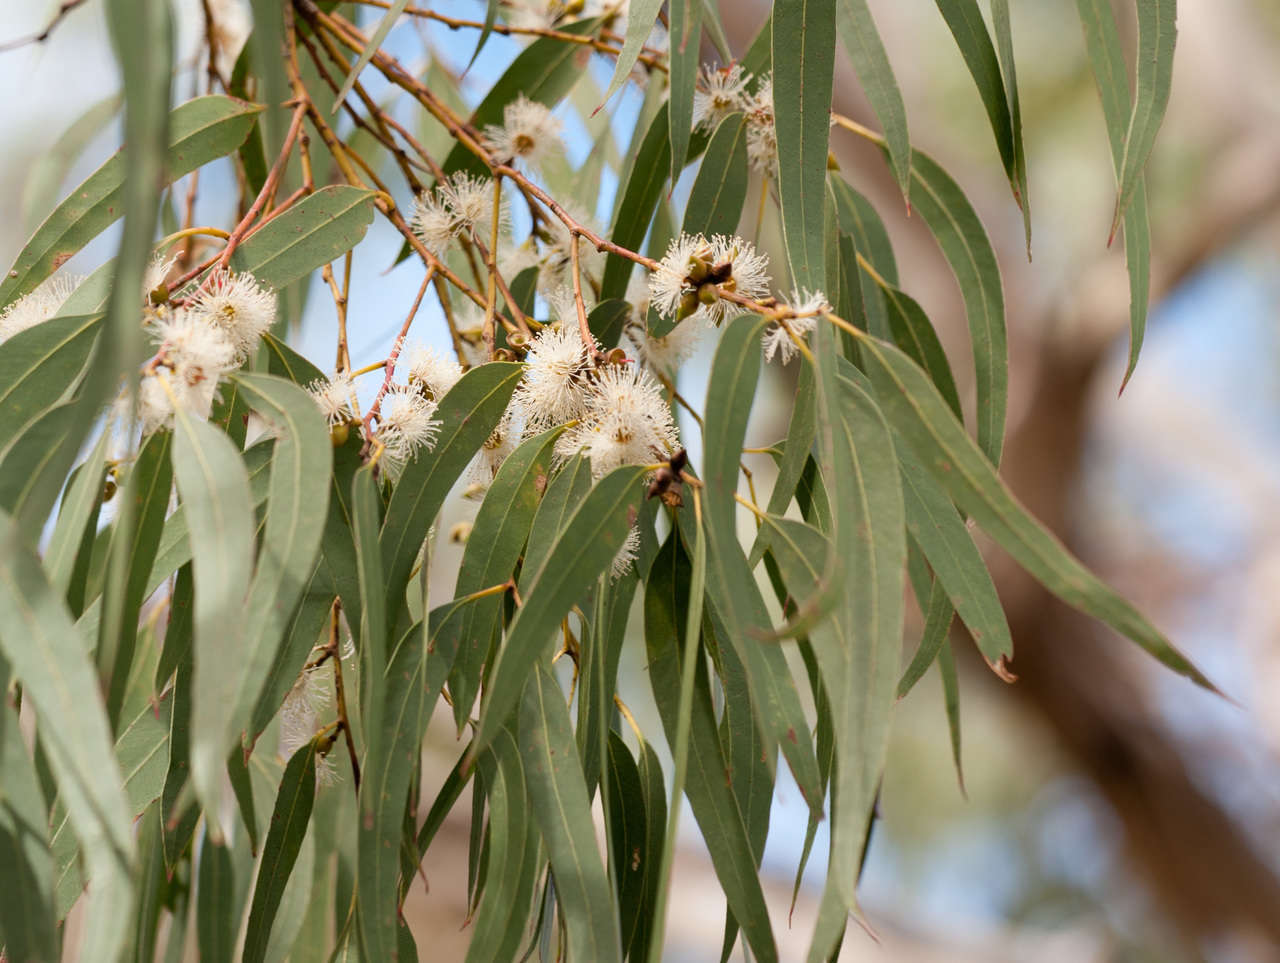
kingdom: Plantae
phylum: Tracheophyta
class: Magnoliopsida
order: Myrtales
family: Myrtaceae
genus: Eucalyptus
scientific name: Eucalyptus viminalis
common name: Manna gum
